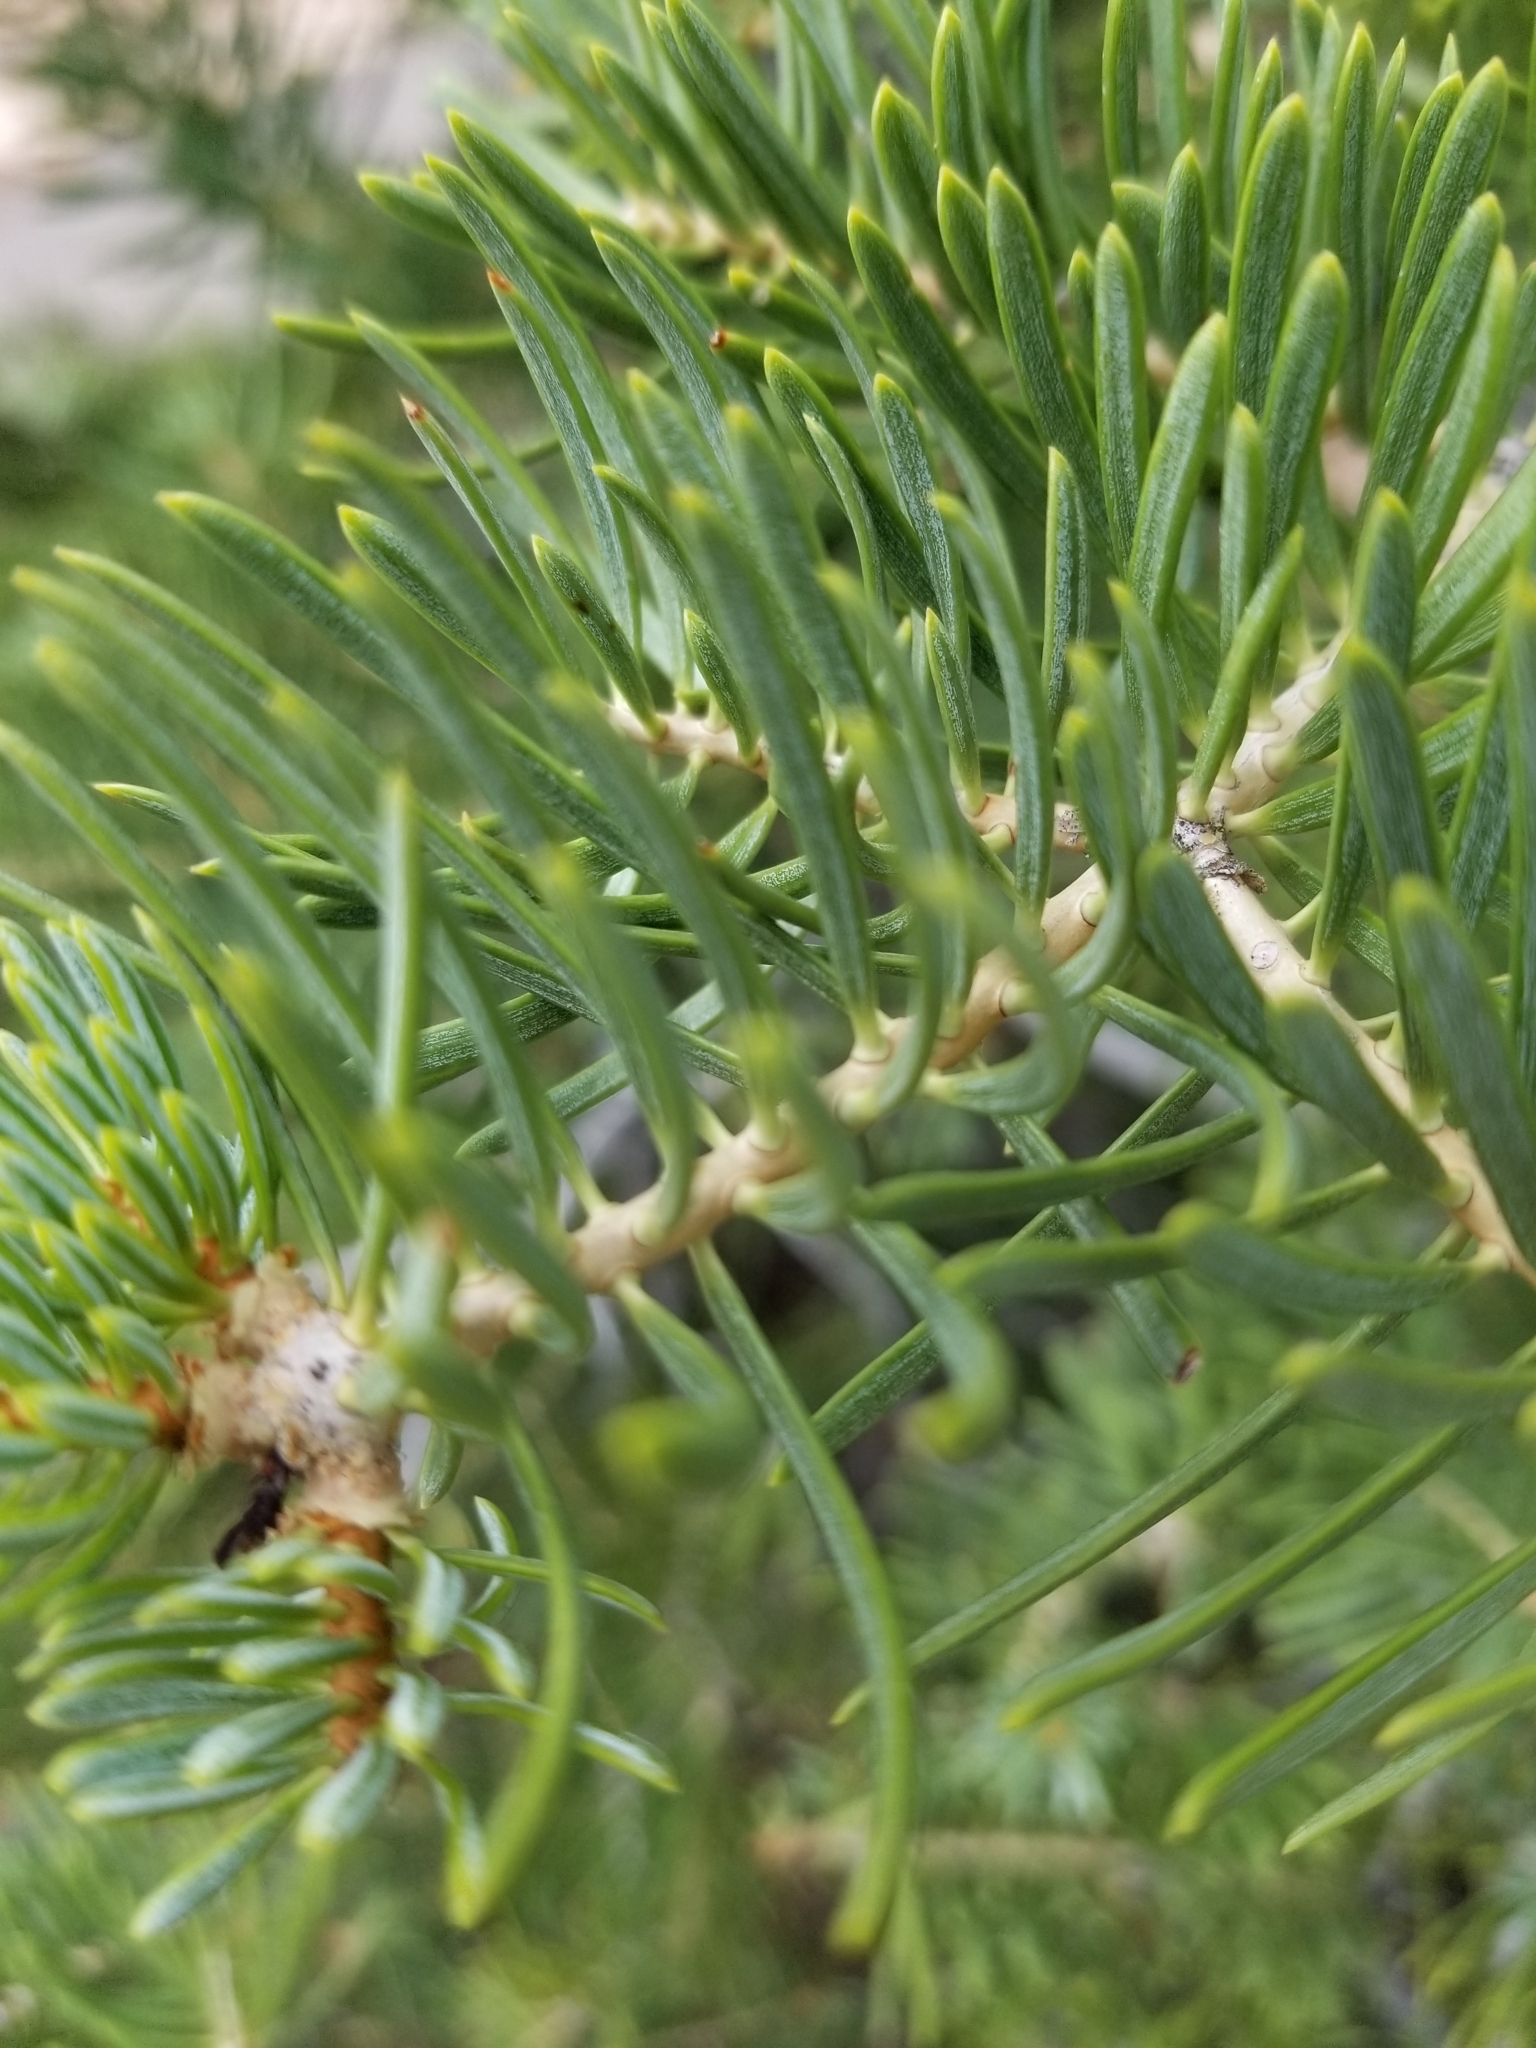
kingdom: Plantae
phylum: Tracheophyta
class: Pinopsida
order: Pinales
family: Pinaceae
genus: Pseudotsuga
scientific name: Pseudotsuga menziesii
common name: Douglas fir
